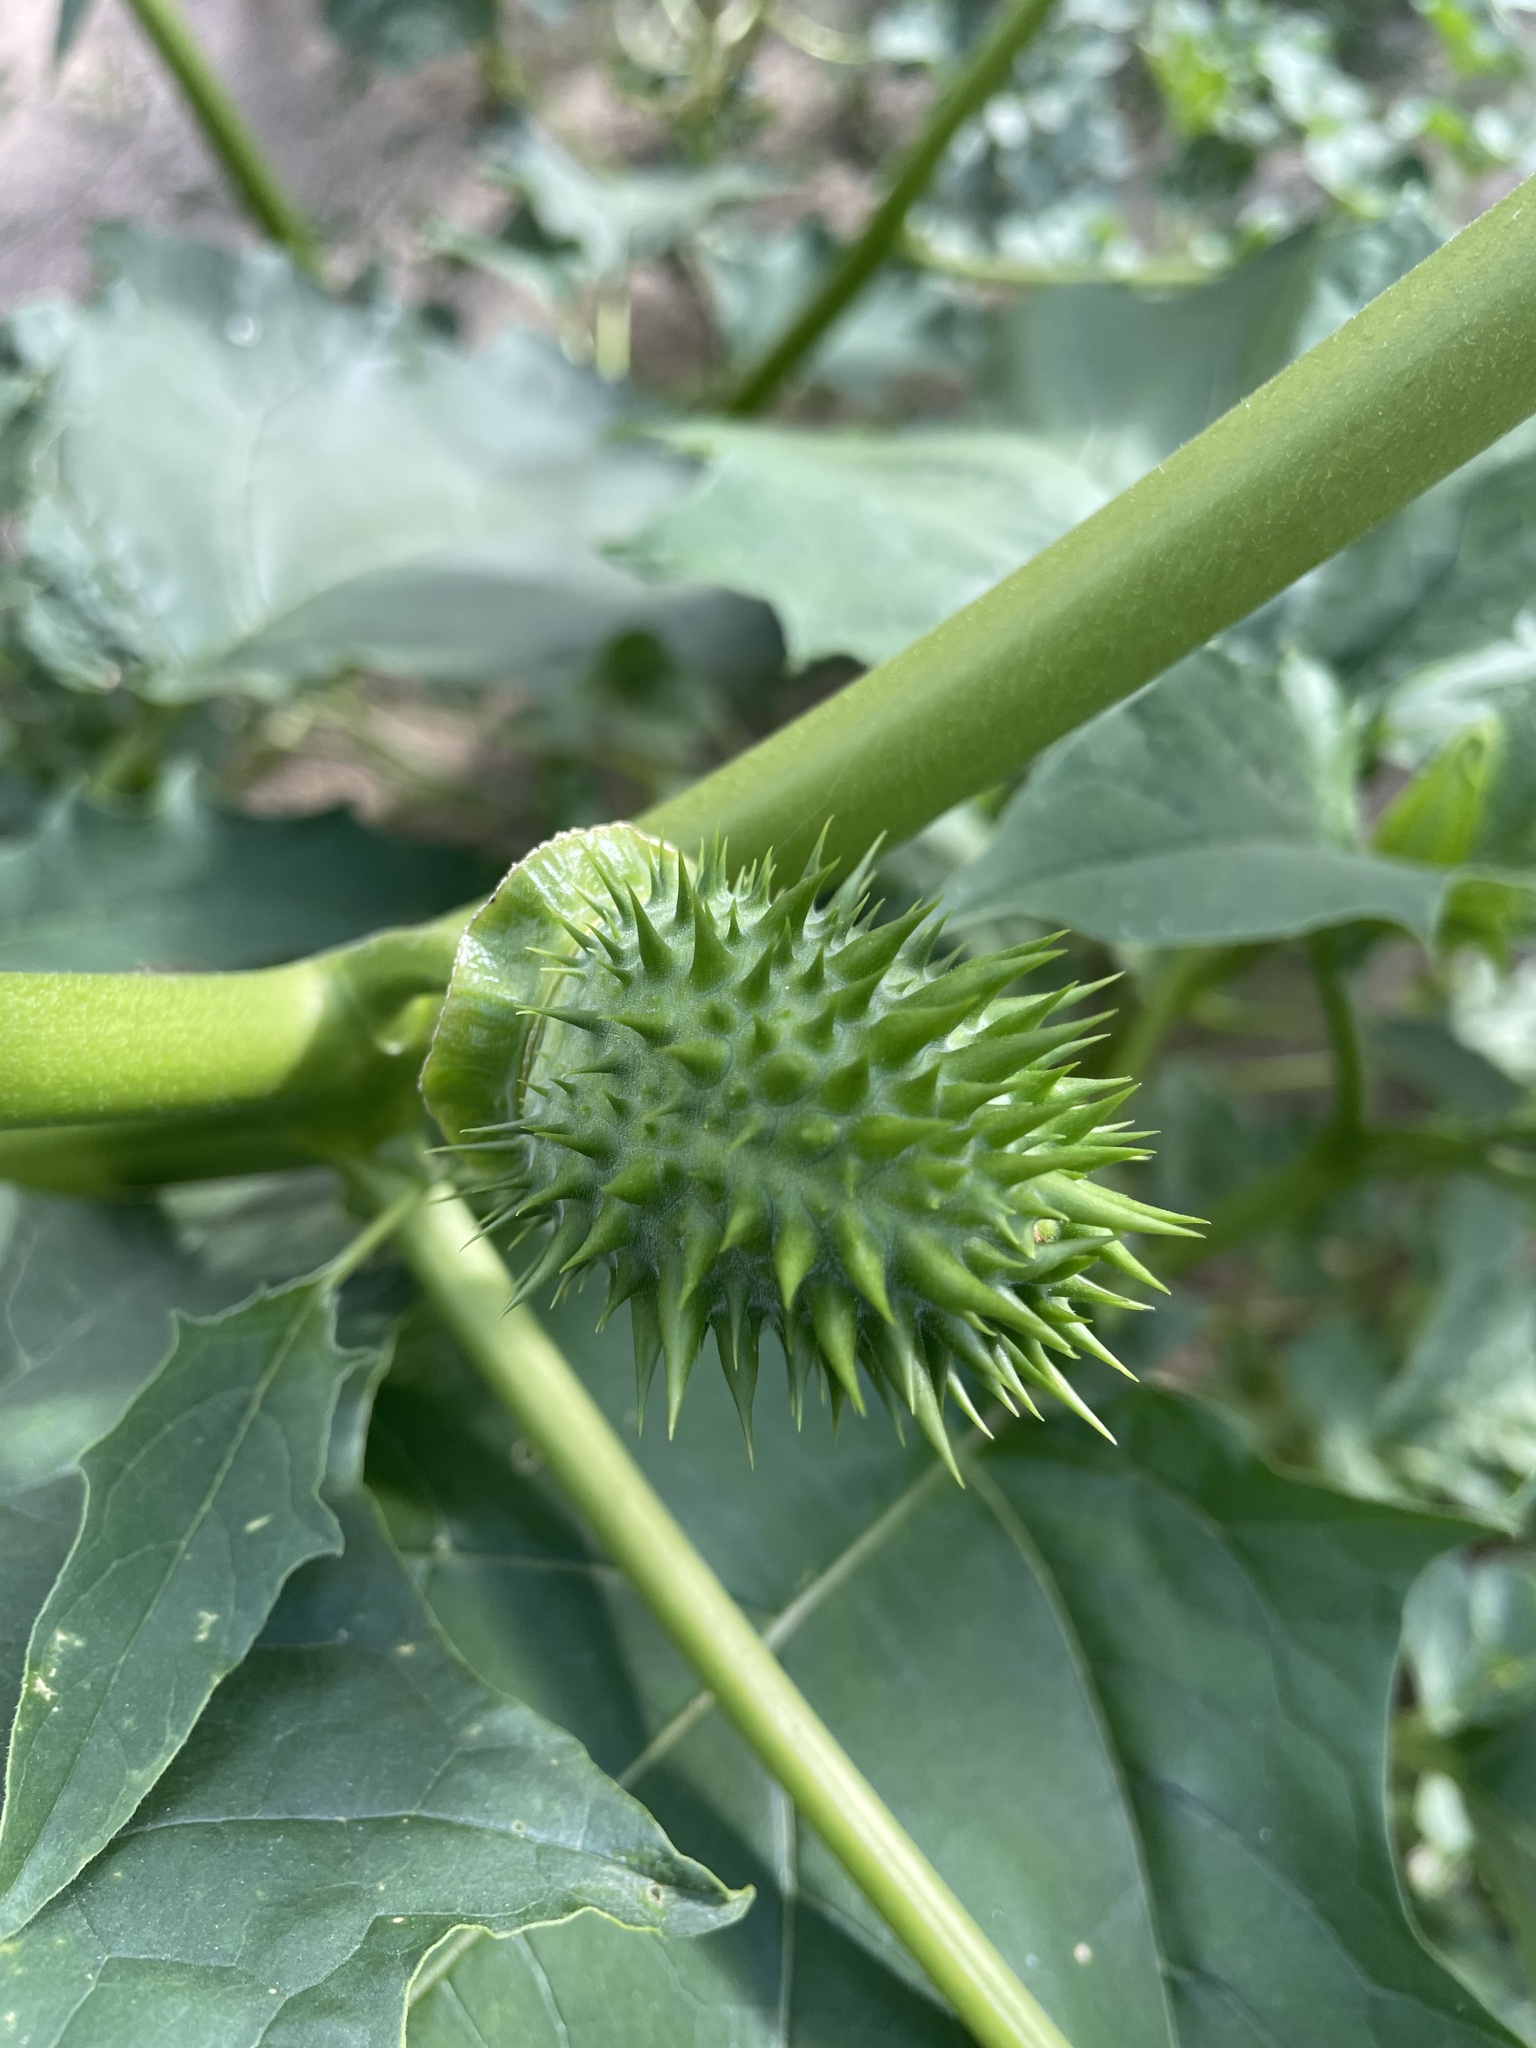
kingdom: Plantae
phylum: Tracheophyta
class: Magnoliopsida
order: Solanales
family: Solanaceae
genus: Datura
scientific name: Datura stramonium
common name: Thorn-apple
